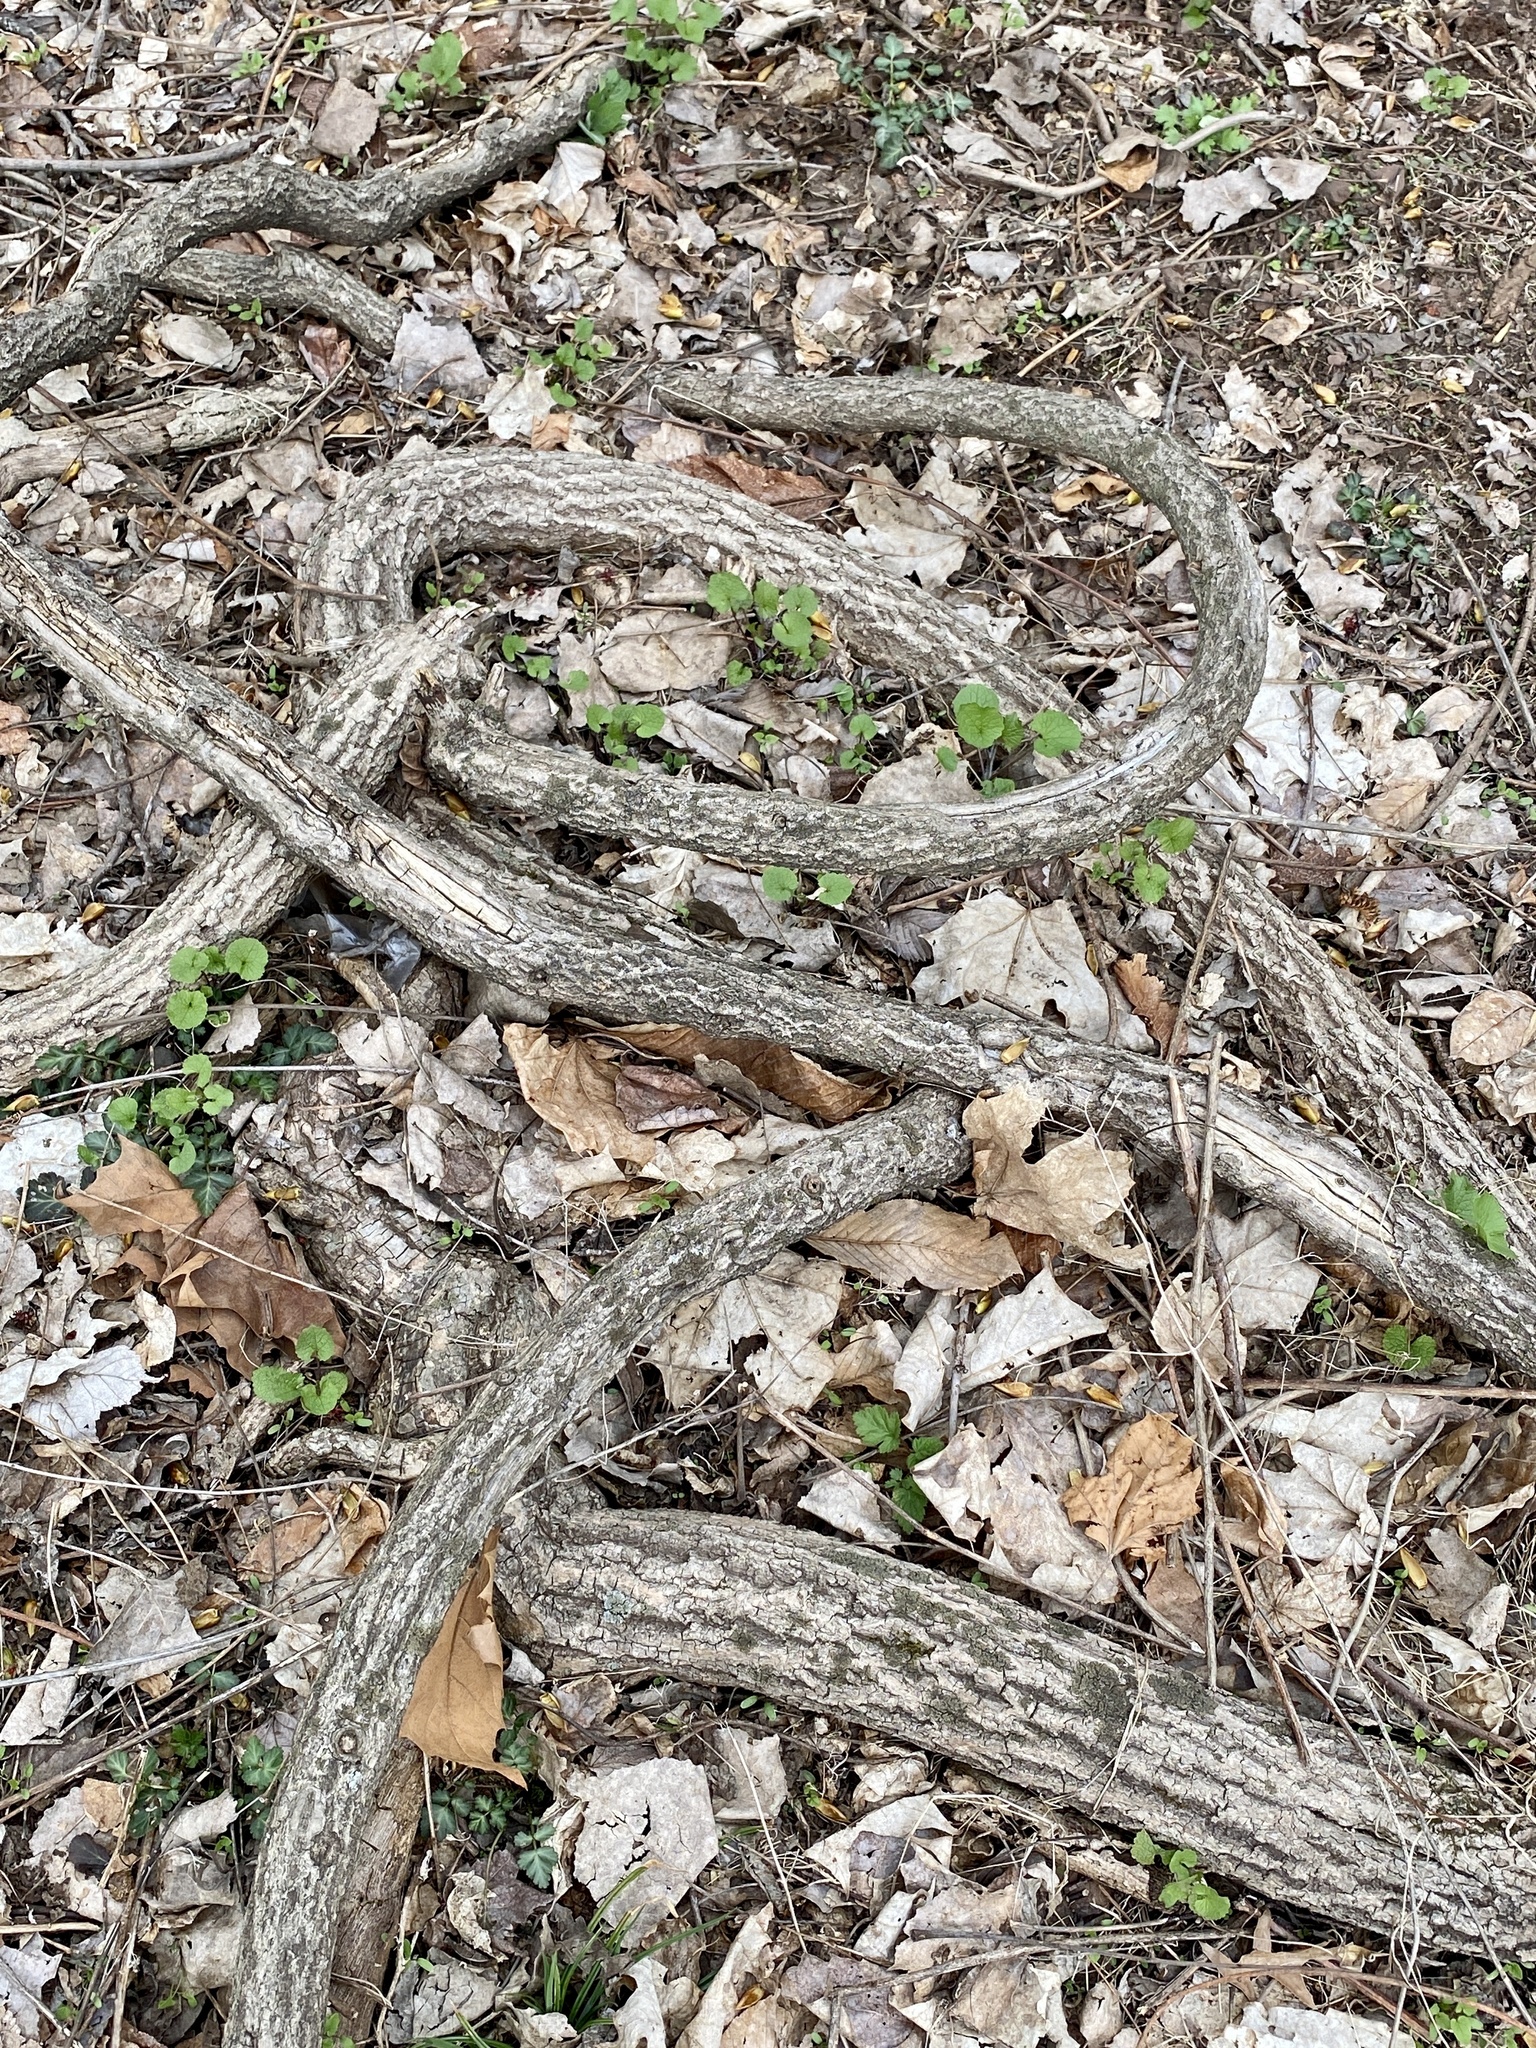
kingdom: Plantae
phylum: Tracheophyta
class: Magnoliopsida
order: Celastrales
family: Celastraceae
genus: Celastrus
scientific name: Celastrus orbiculatus
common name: Oriental bittersweet
